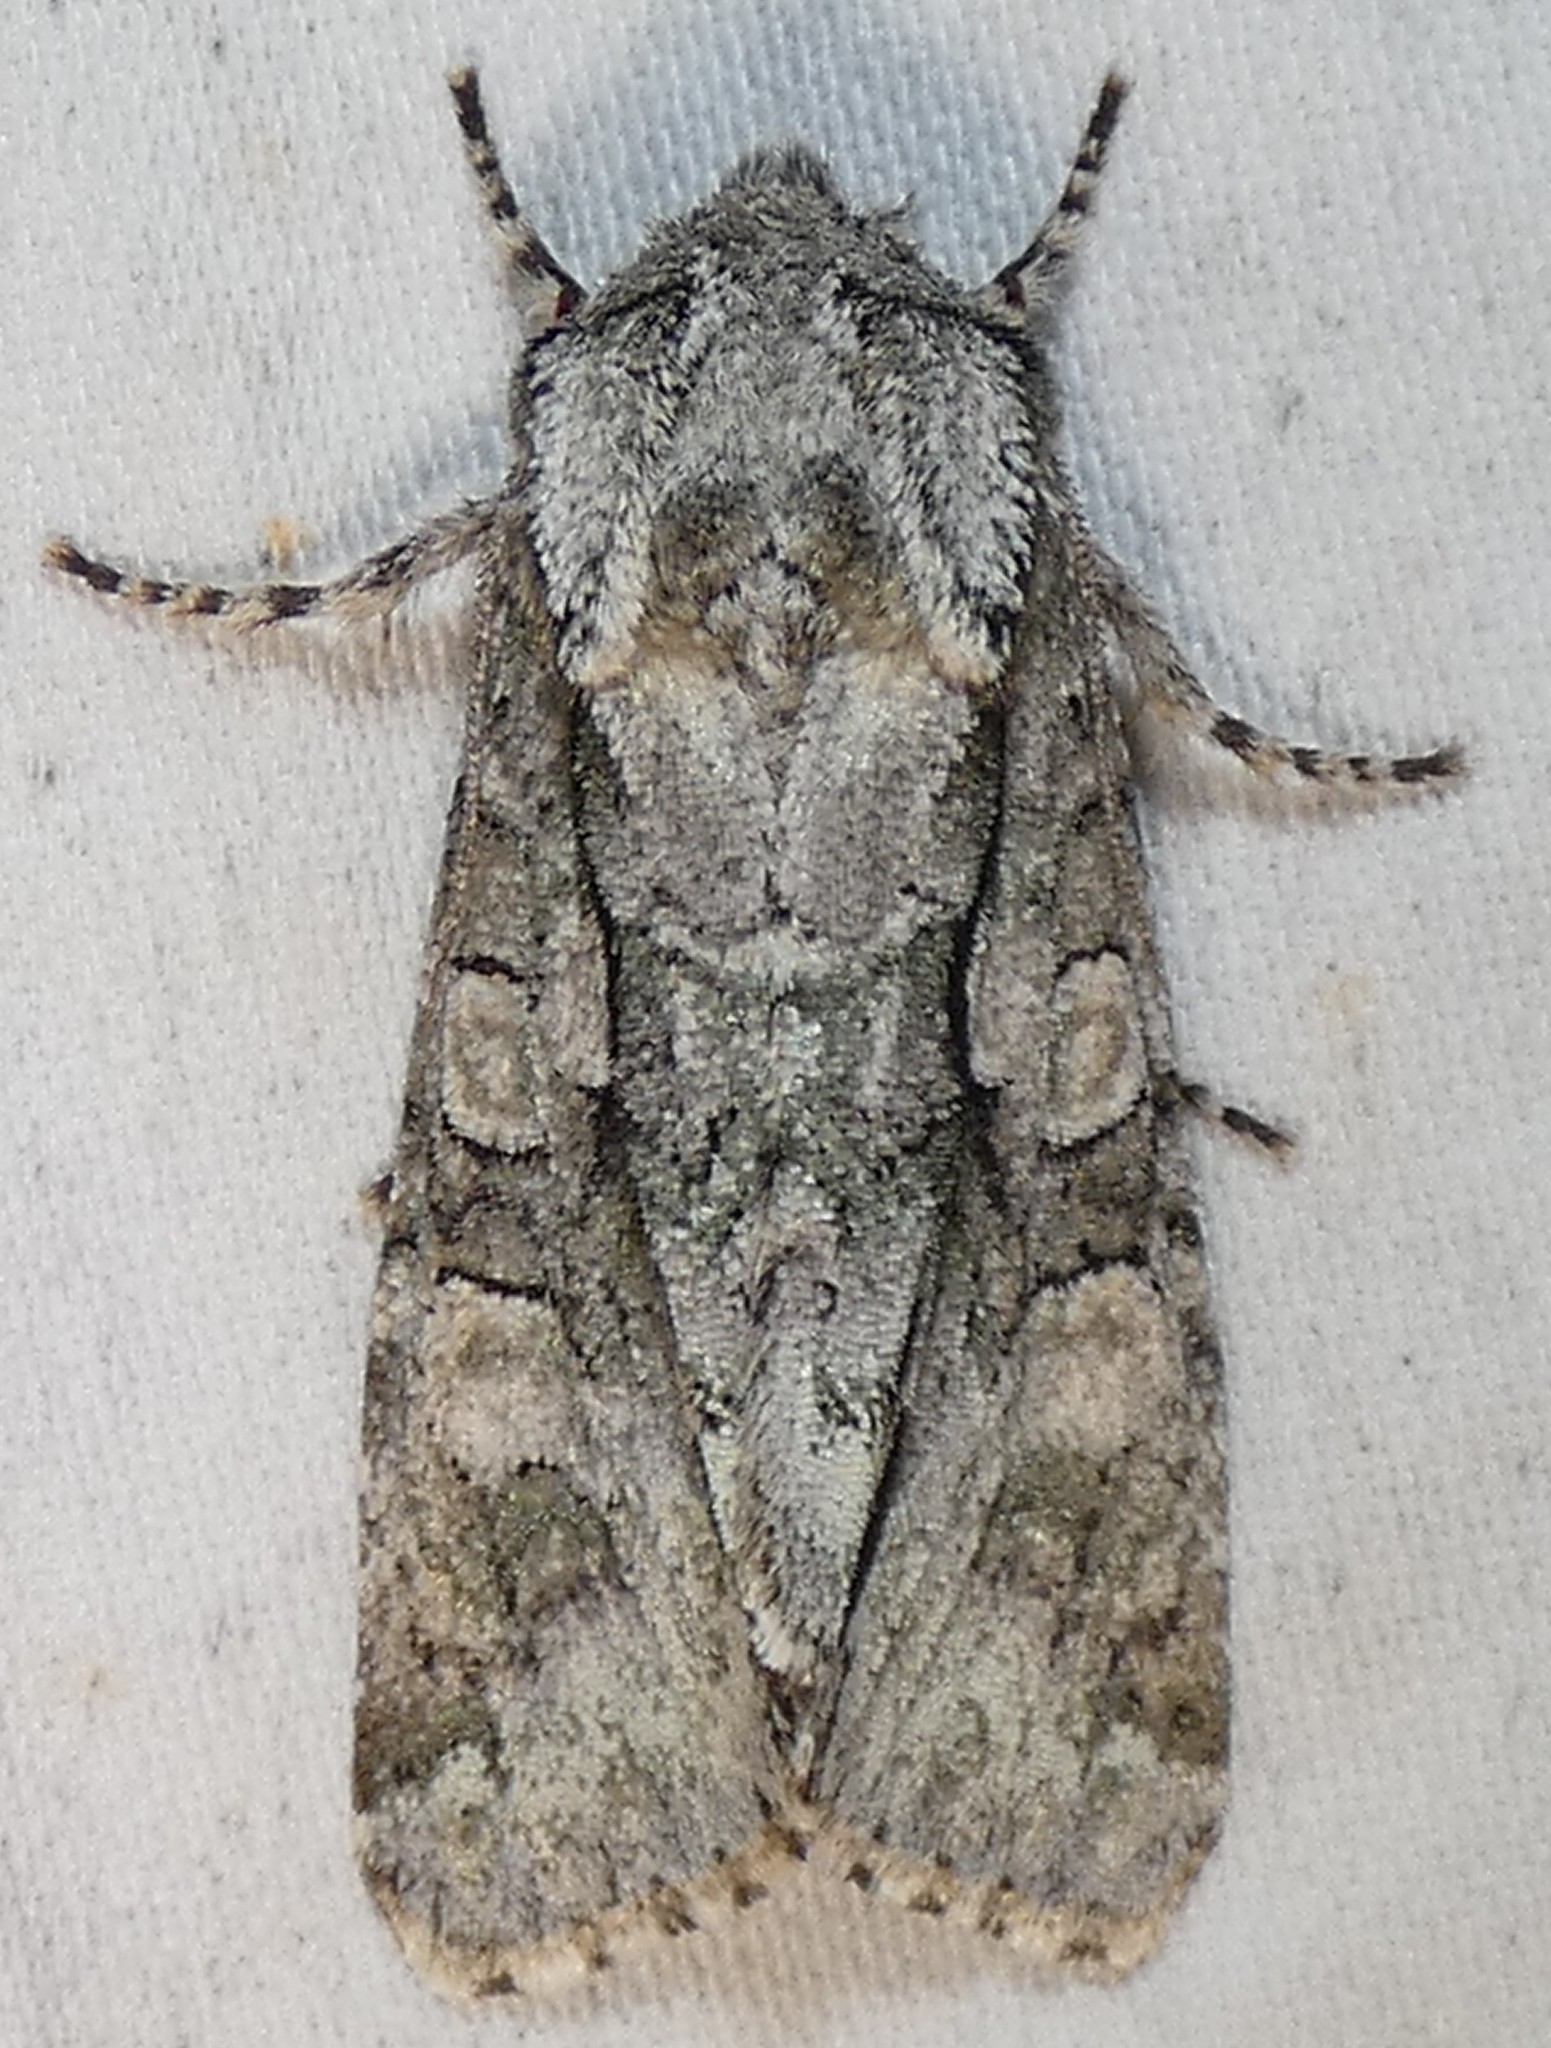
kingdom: Animalia
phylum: Arthropoda
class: Insecta
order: Lepidoptera
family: Noctuidae
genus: Psaphida
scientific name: Psaphida resumens
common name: Figure-eight sallow
